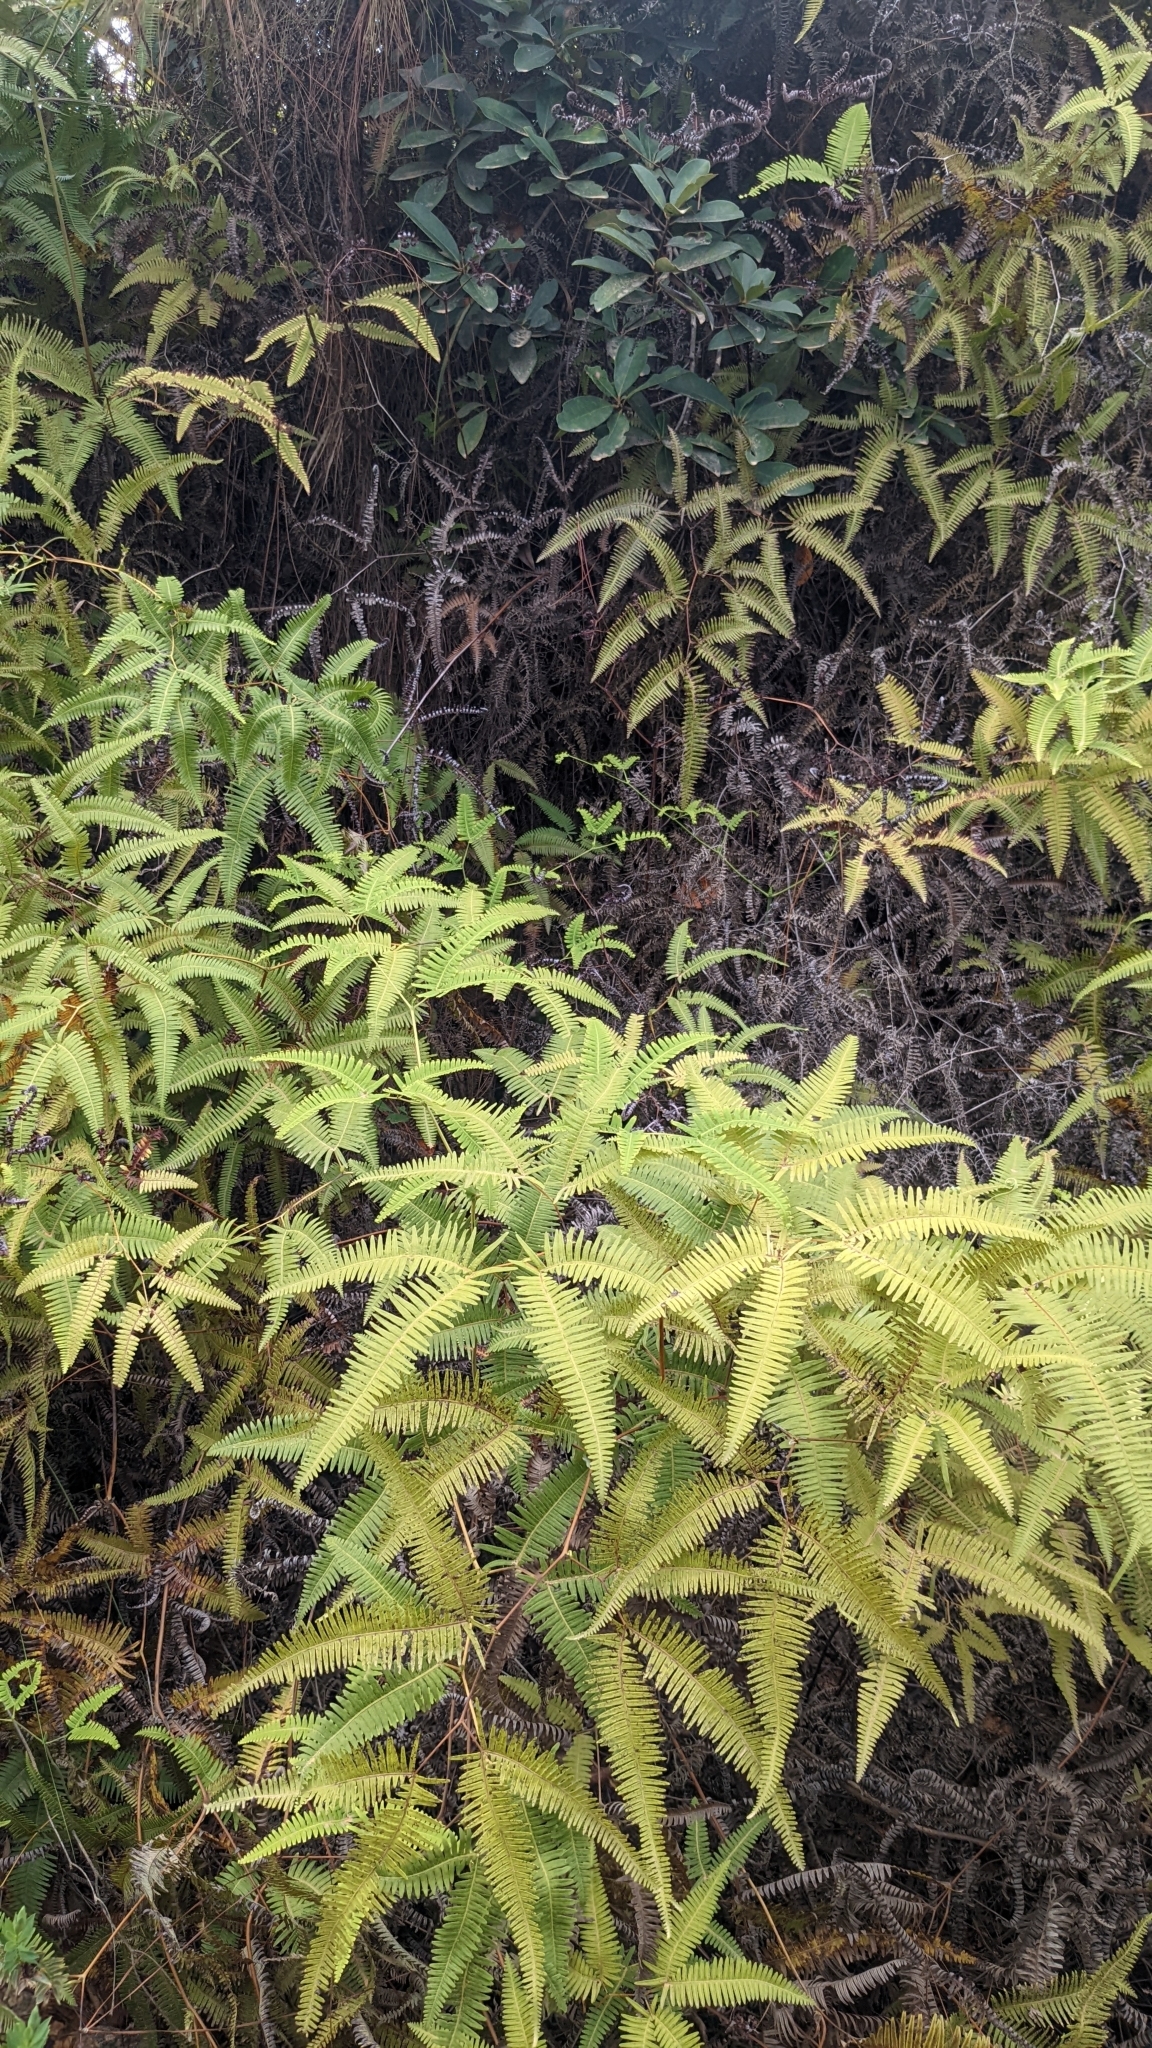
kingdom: Plantae
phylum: Tracheophyta
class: Polypodiopsida
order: Gleicheniales
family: Gleicheniaceae
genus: Dicranopteris
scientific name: Dicranopteris linearis
